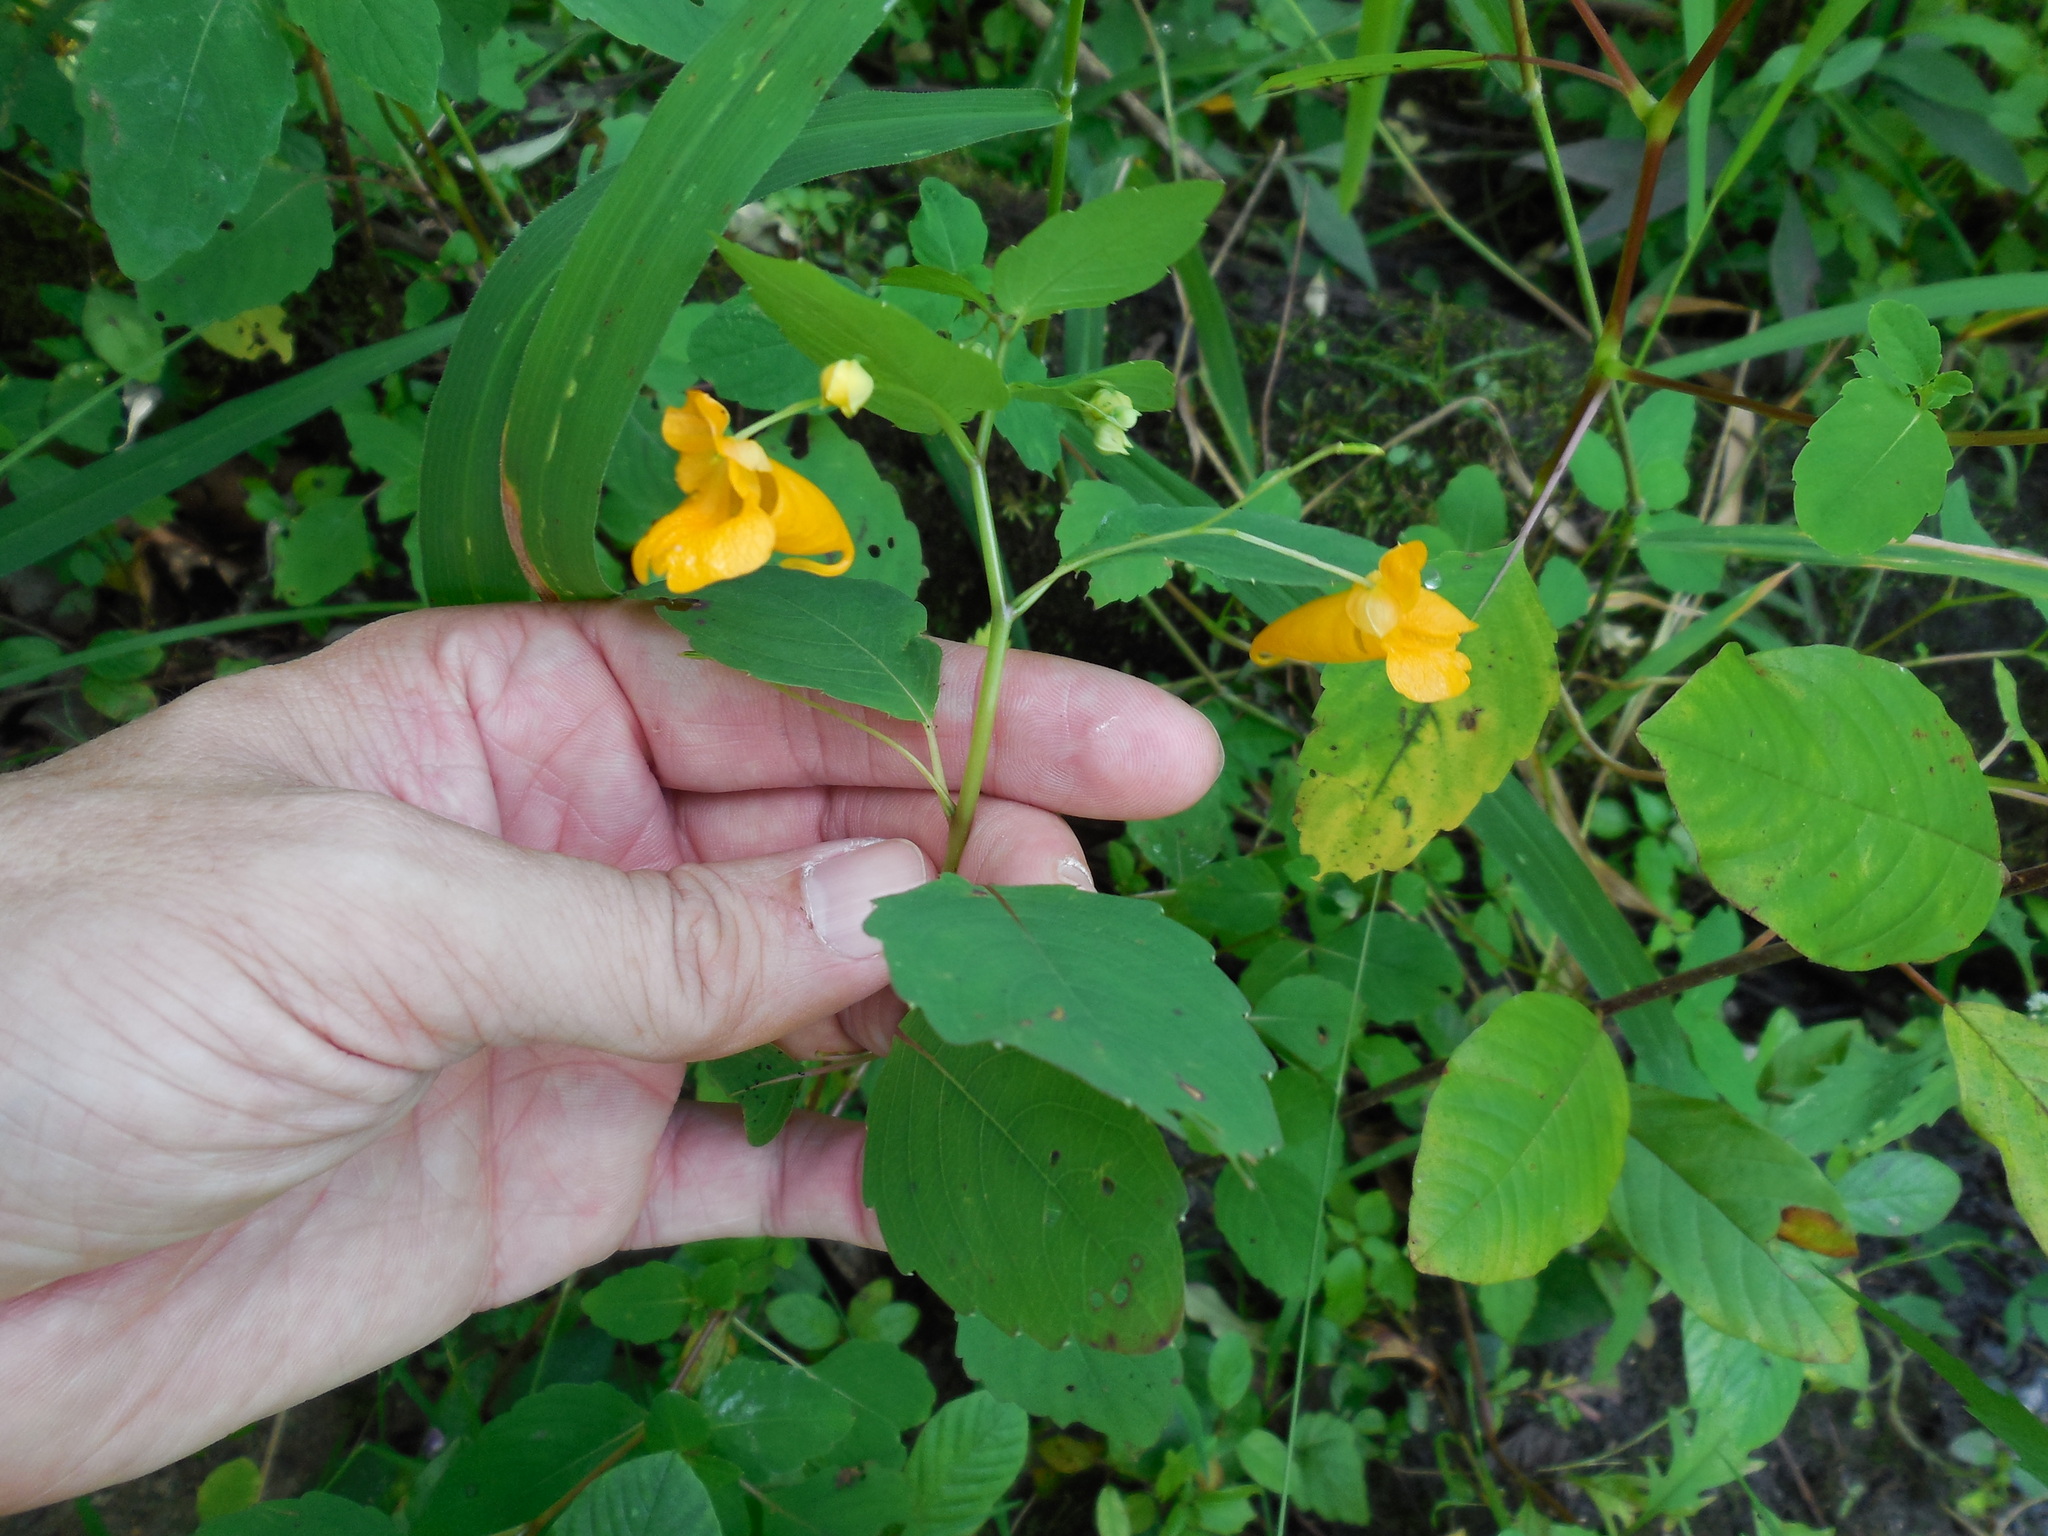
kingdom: Plantae
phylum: Tracheophyta
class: Magnoliopsida
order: Ericales
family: Balsaminaceae
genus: Impatiens
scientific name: Impatiens capensis
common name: Orange balsam
